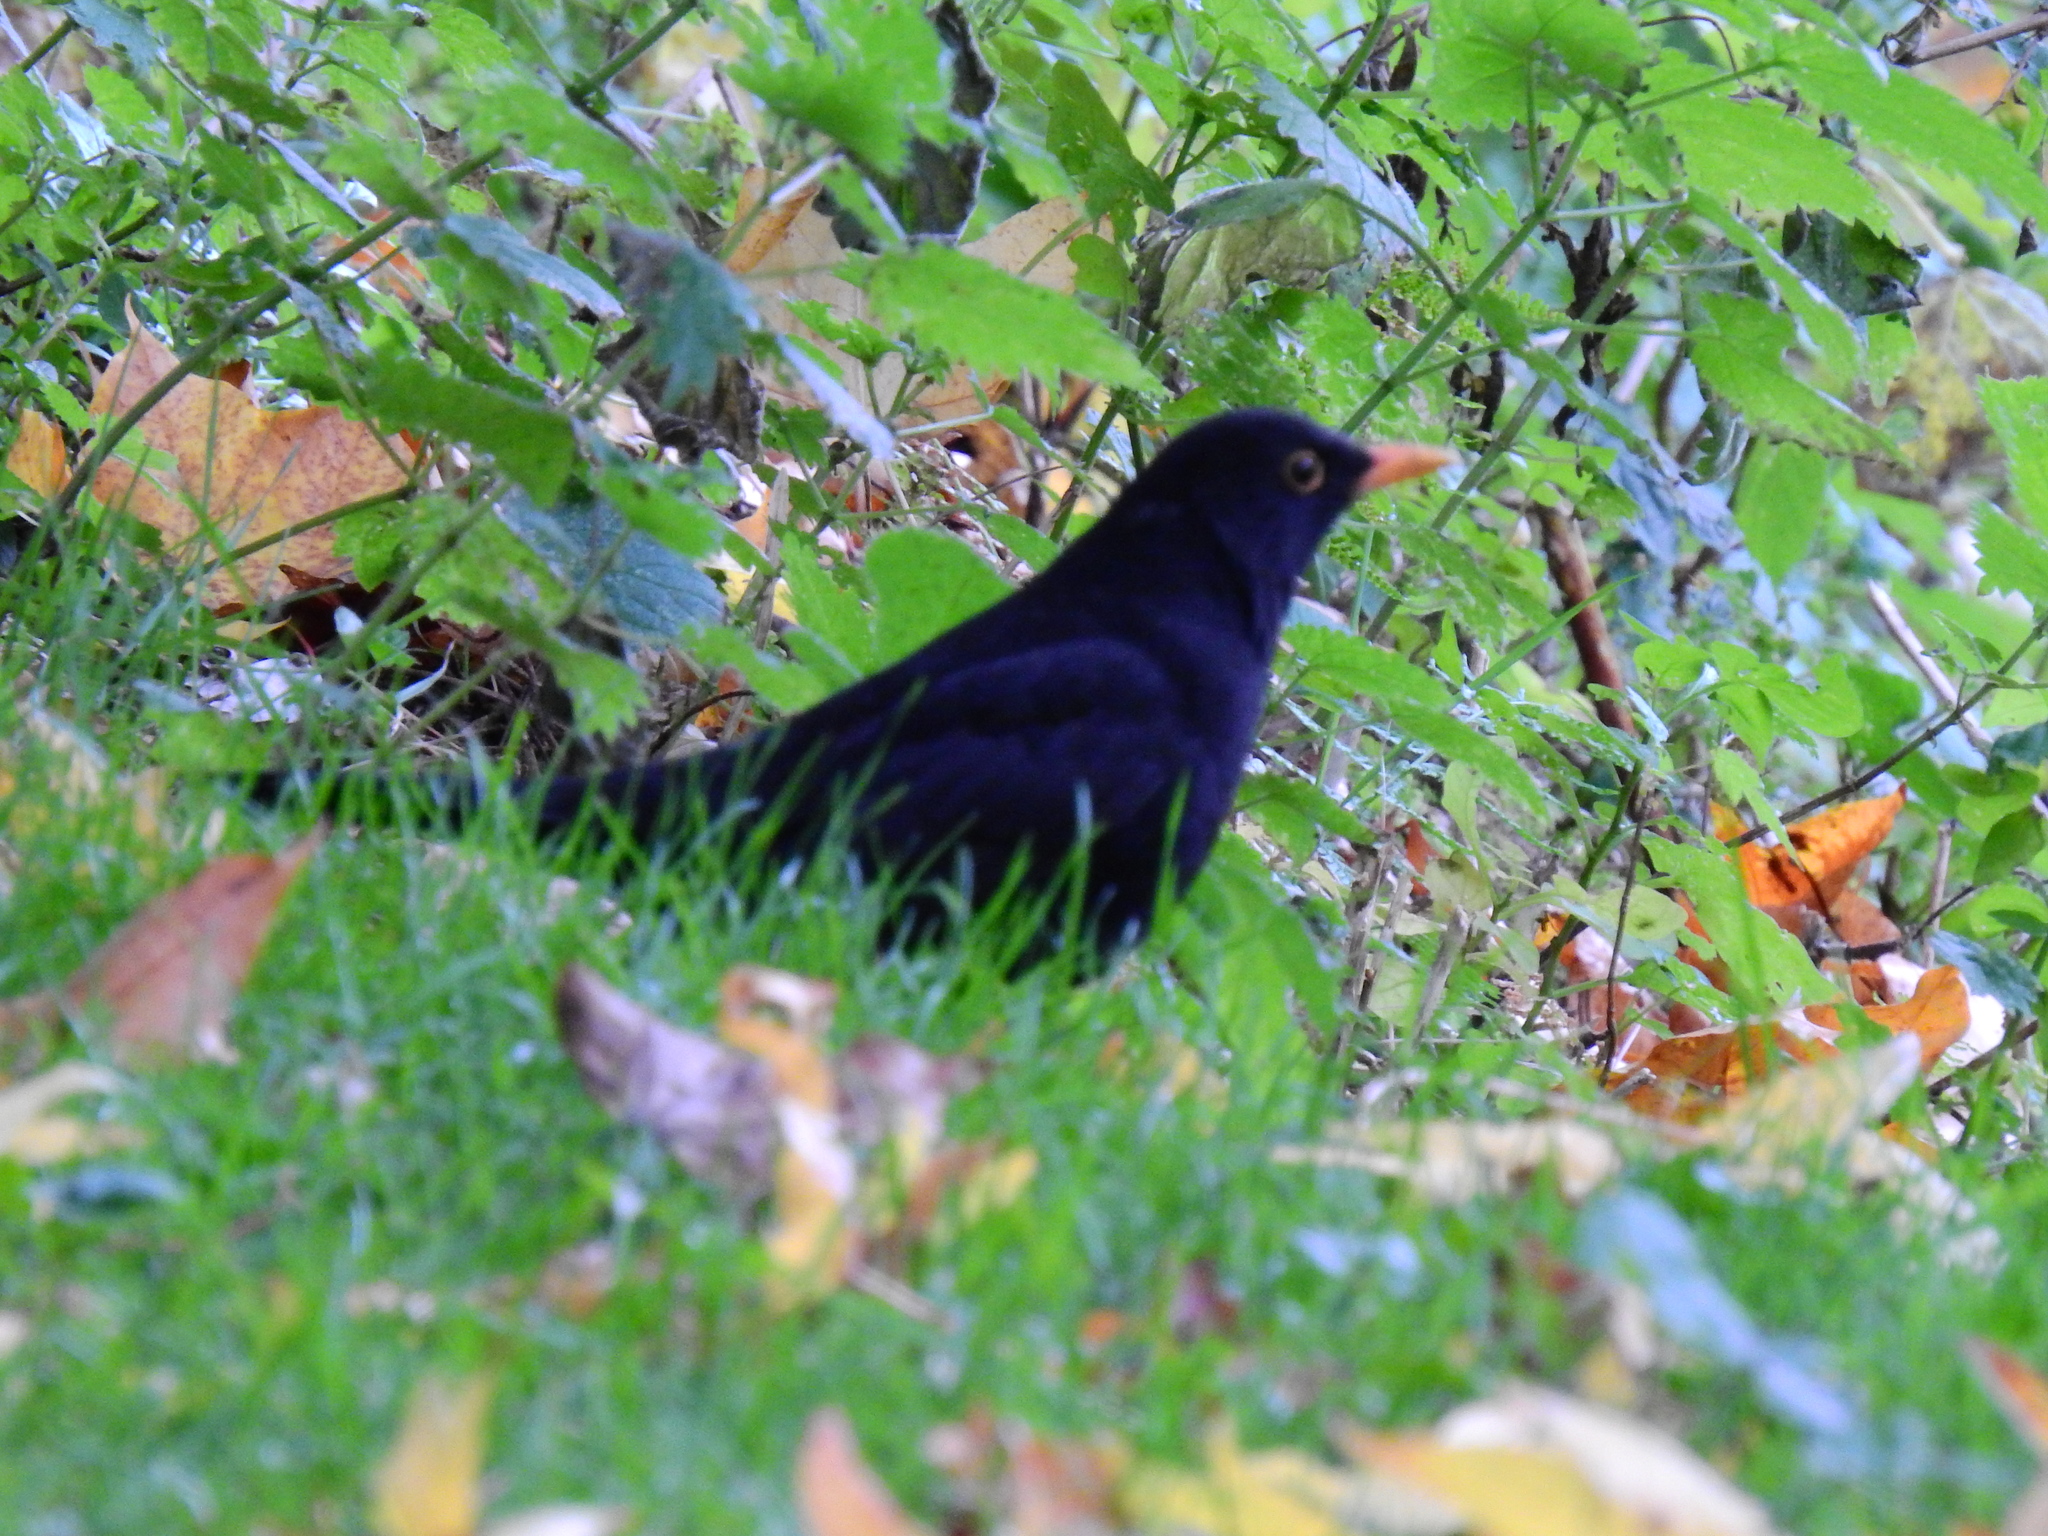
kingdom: Animalia
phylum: Chordata
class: Aves
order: Passeriformes
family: Turdidae
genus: Turdus
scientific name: Turdus merula
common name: Common blackbird
